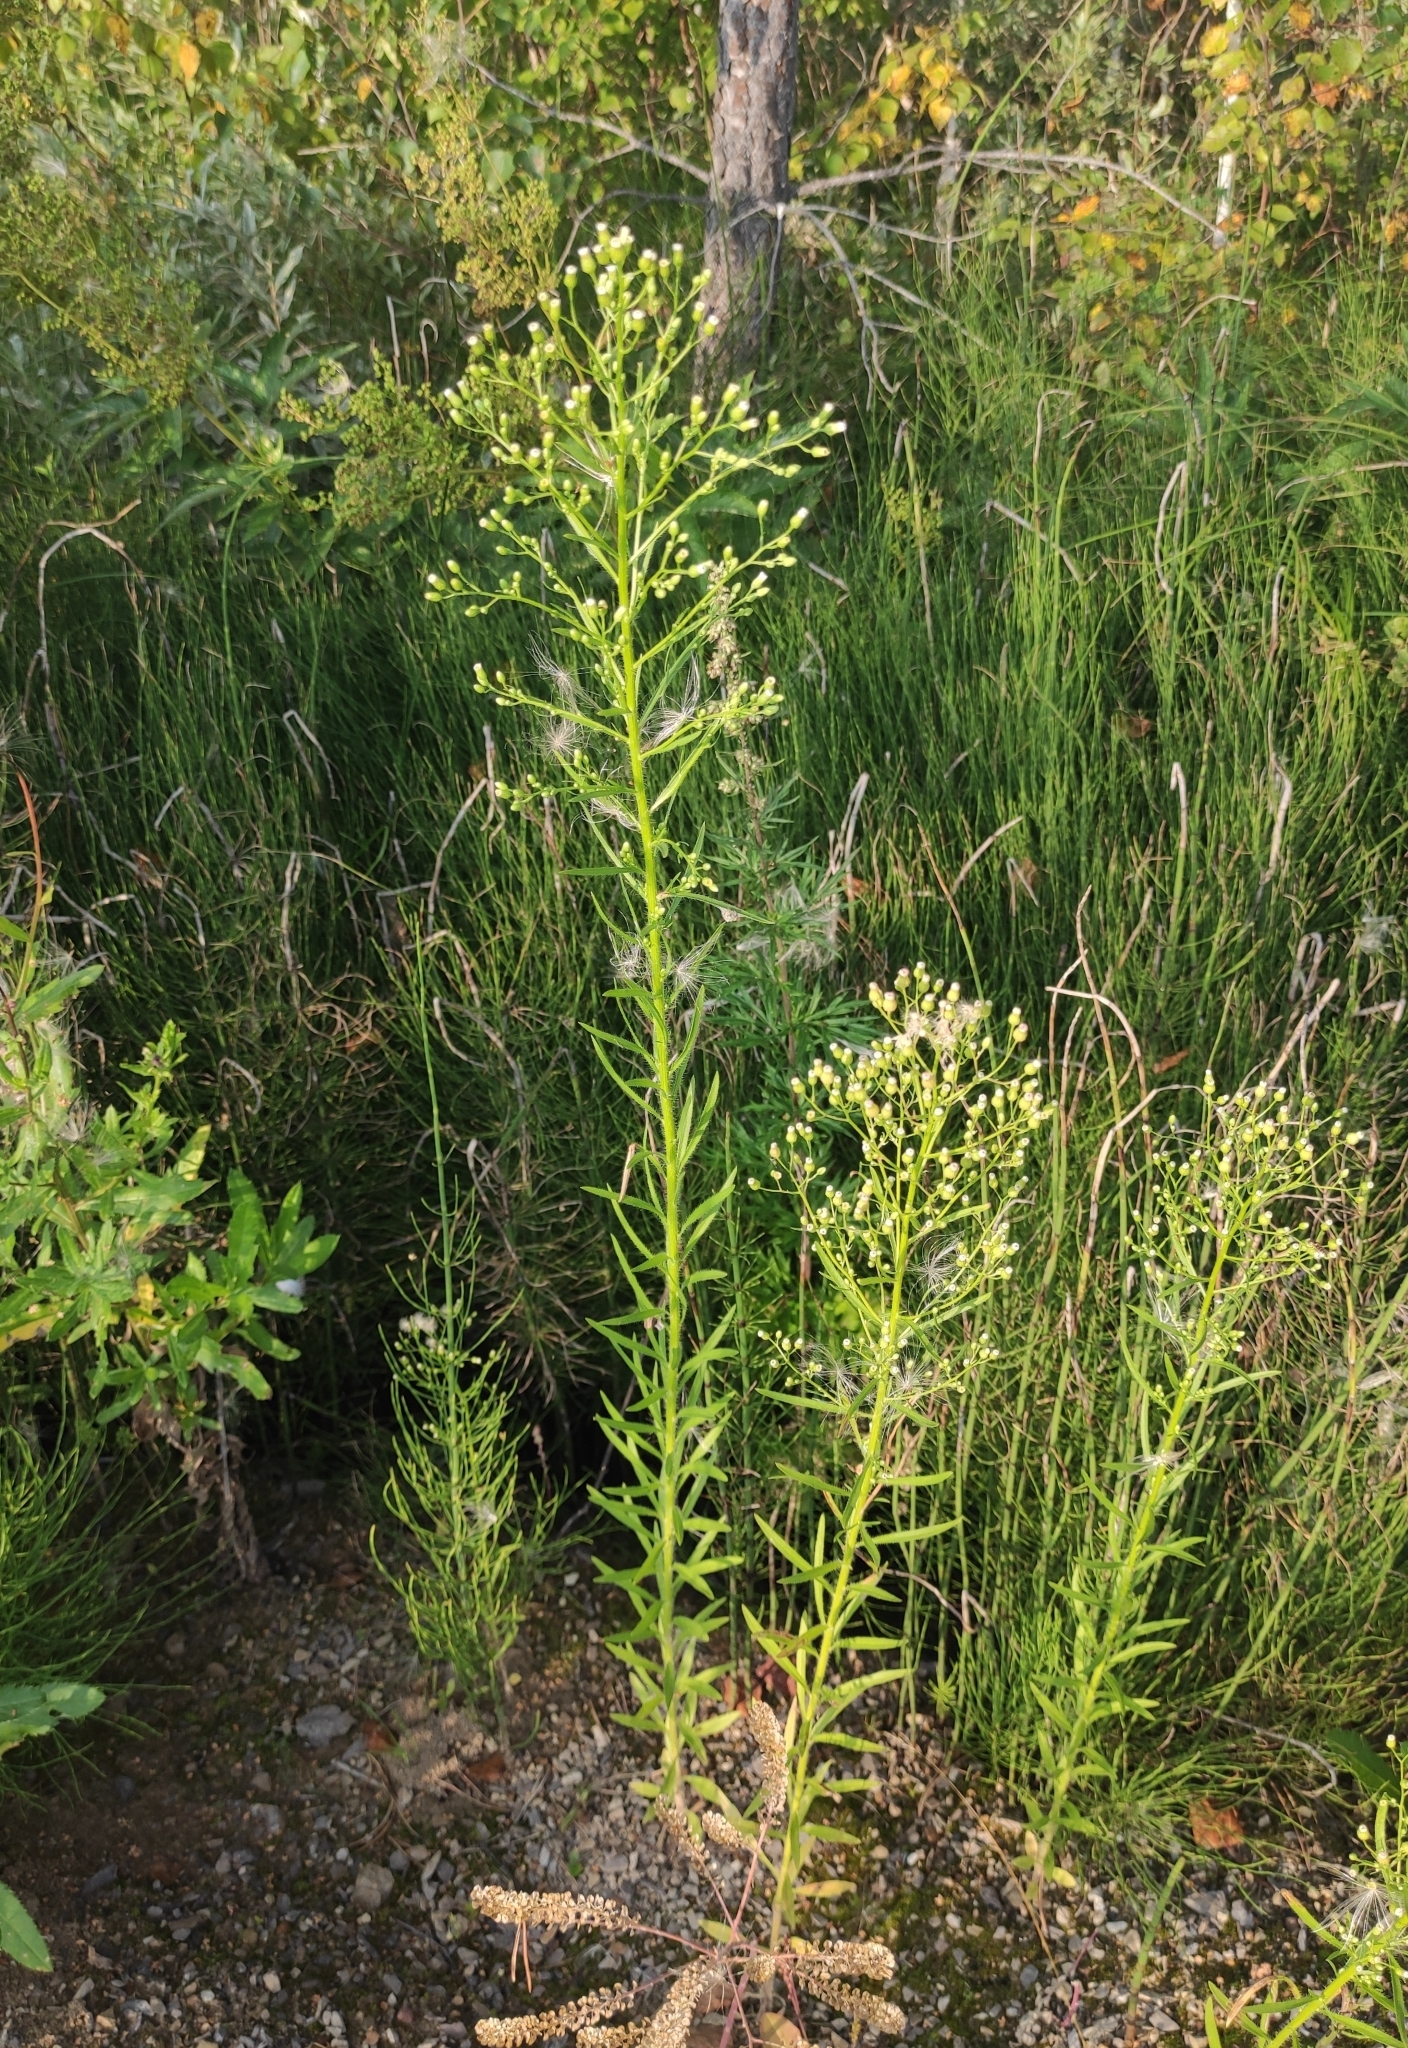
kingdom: Plantae
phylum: Tracheophyta
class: Magnoliopsida
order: Asterales
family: Asteraceae
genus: Erigeron
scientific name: Erigeron canadensis
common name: Canadian fleabane
